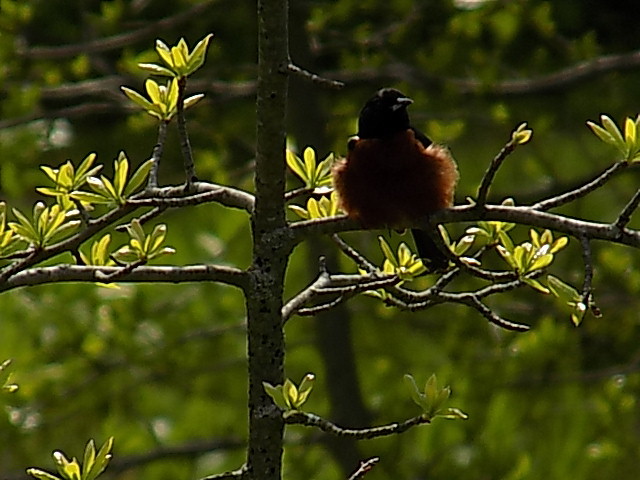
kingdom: Animalia
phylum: Chordata
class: Aves
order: Passeriformes
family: Icteridae
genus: Icterus
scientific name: Icterus spurius
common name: Orchard oriole
